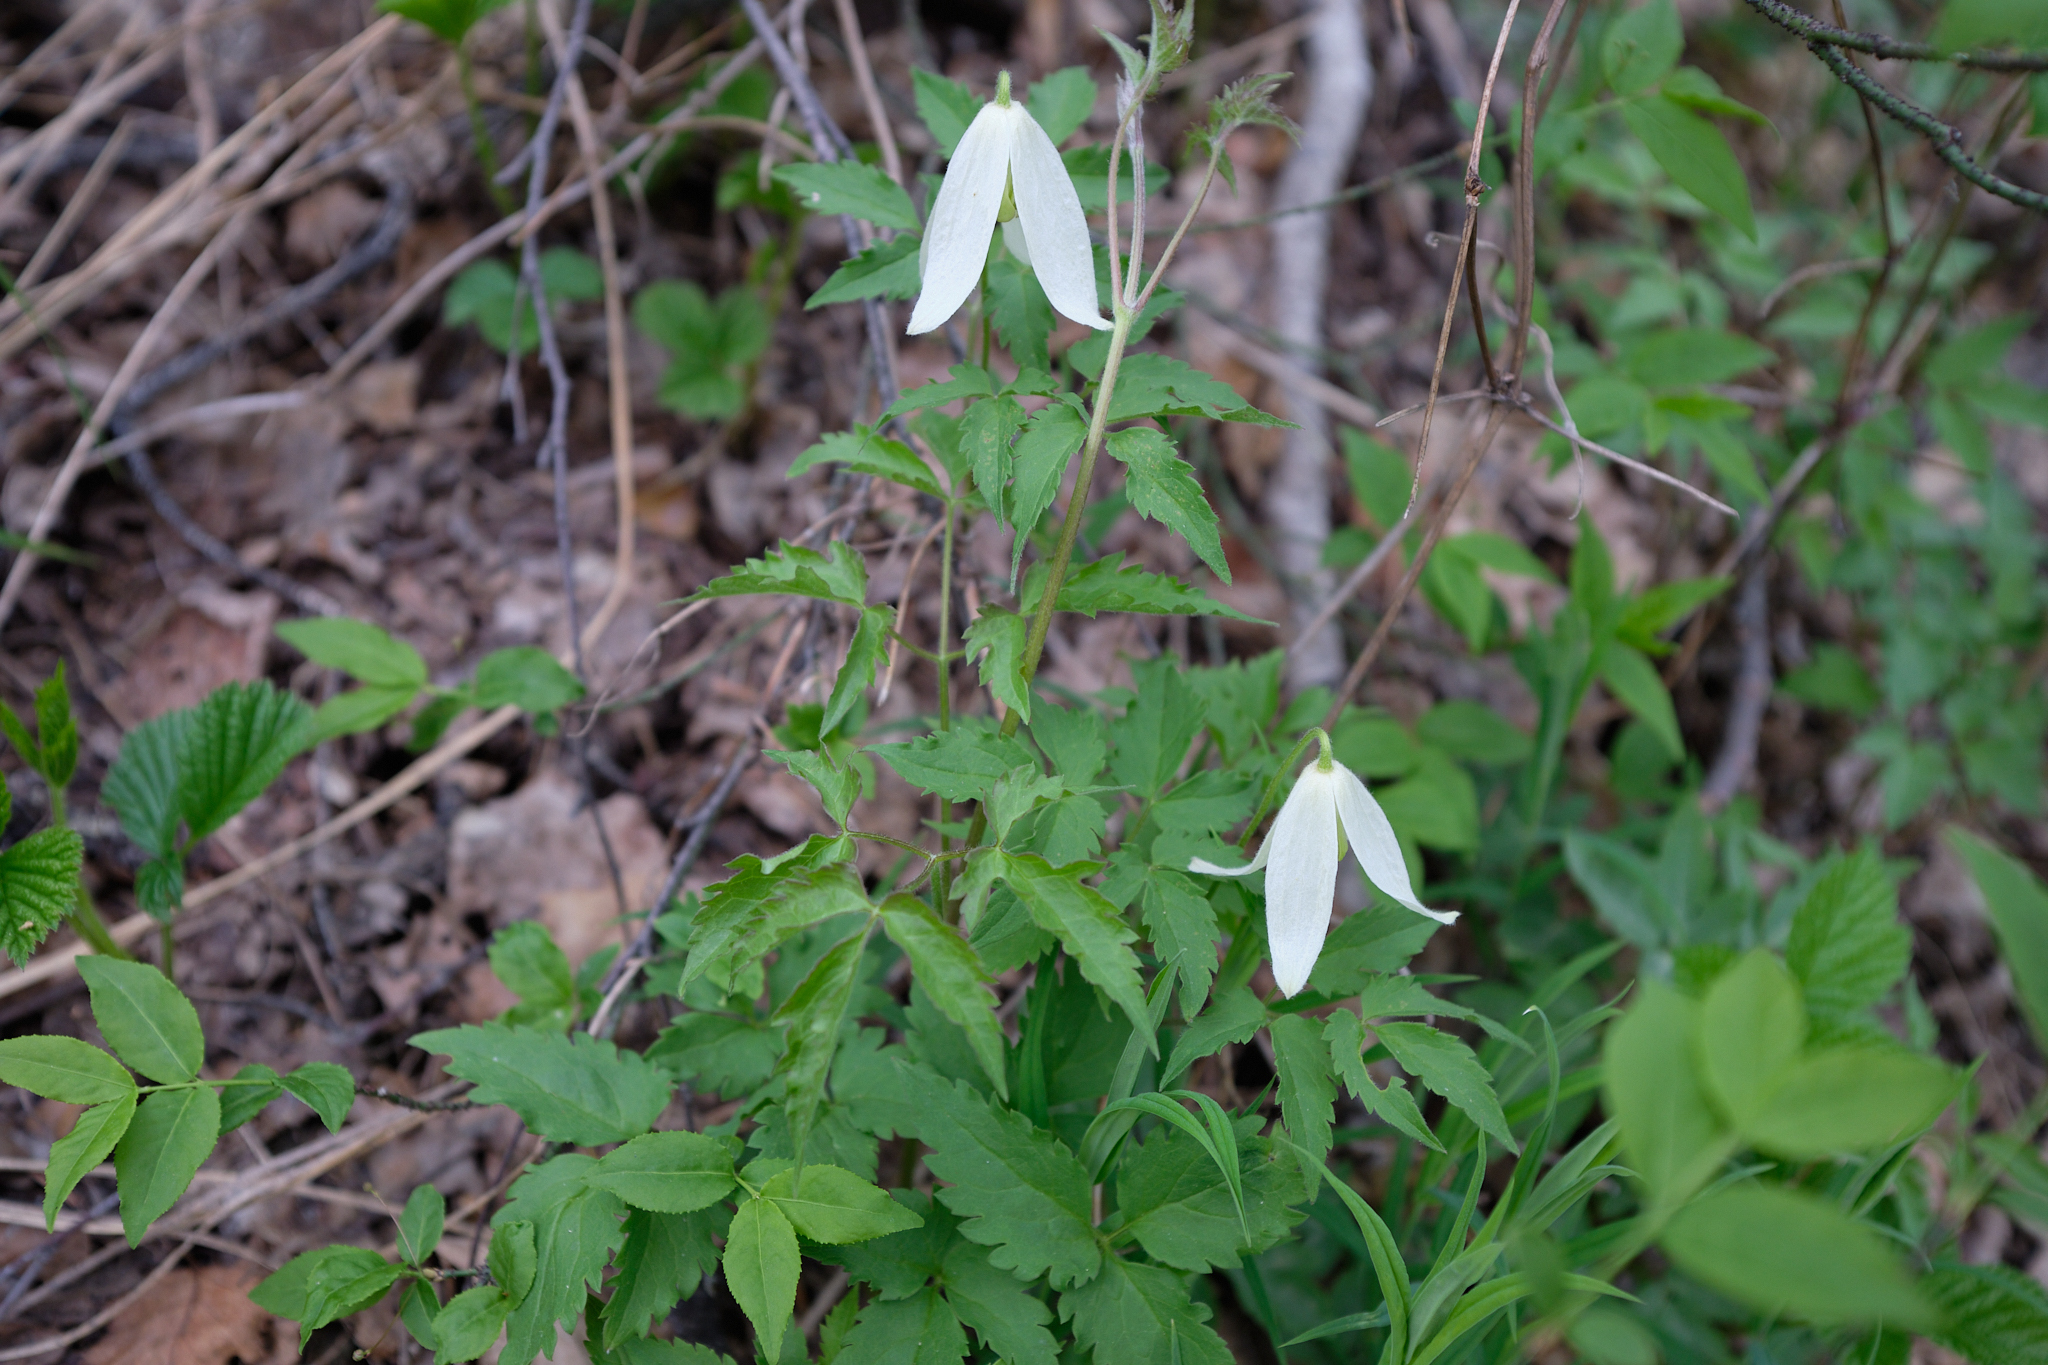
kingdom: Plantae
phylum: Tracheophyta
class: Magnoliopsida
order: Ranunculales
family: Ranunculaceae
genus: Clematis
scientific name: Clematis sibirica
